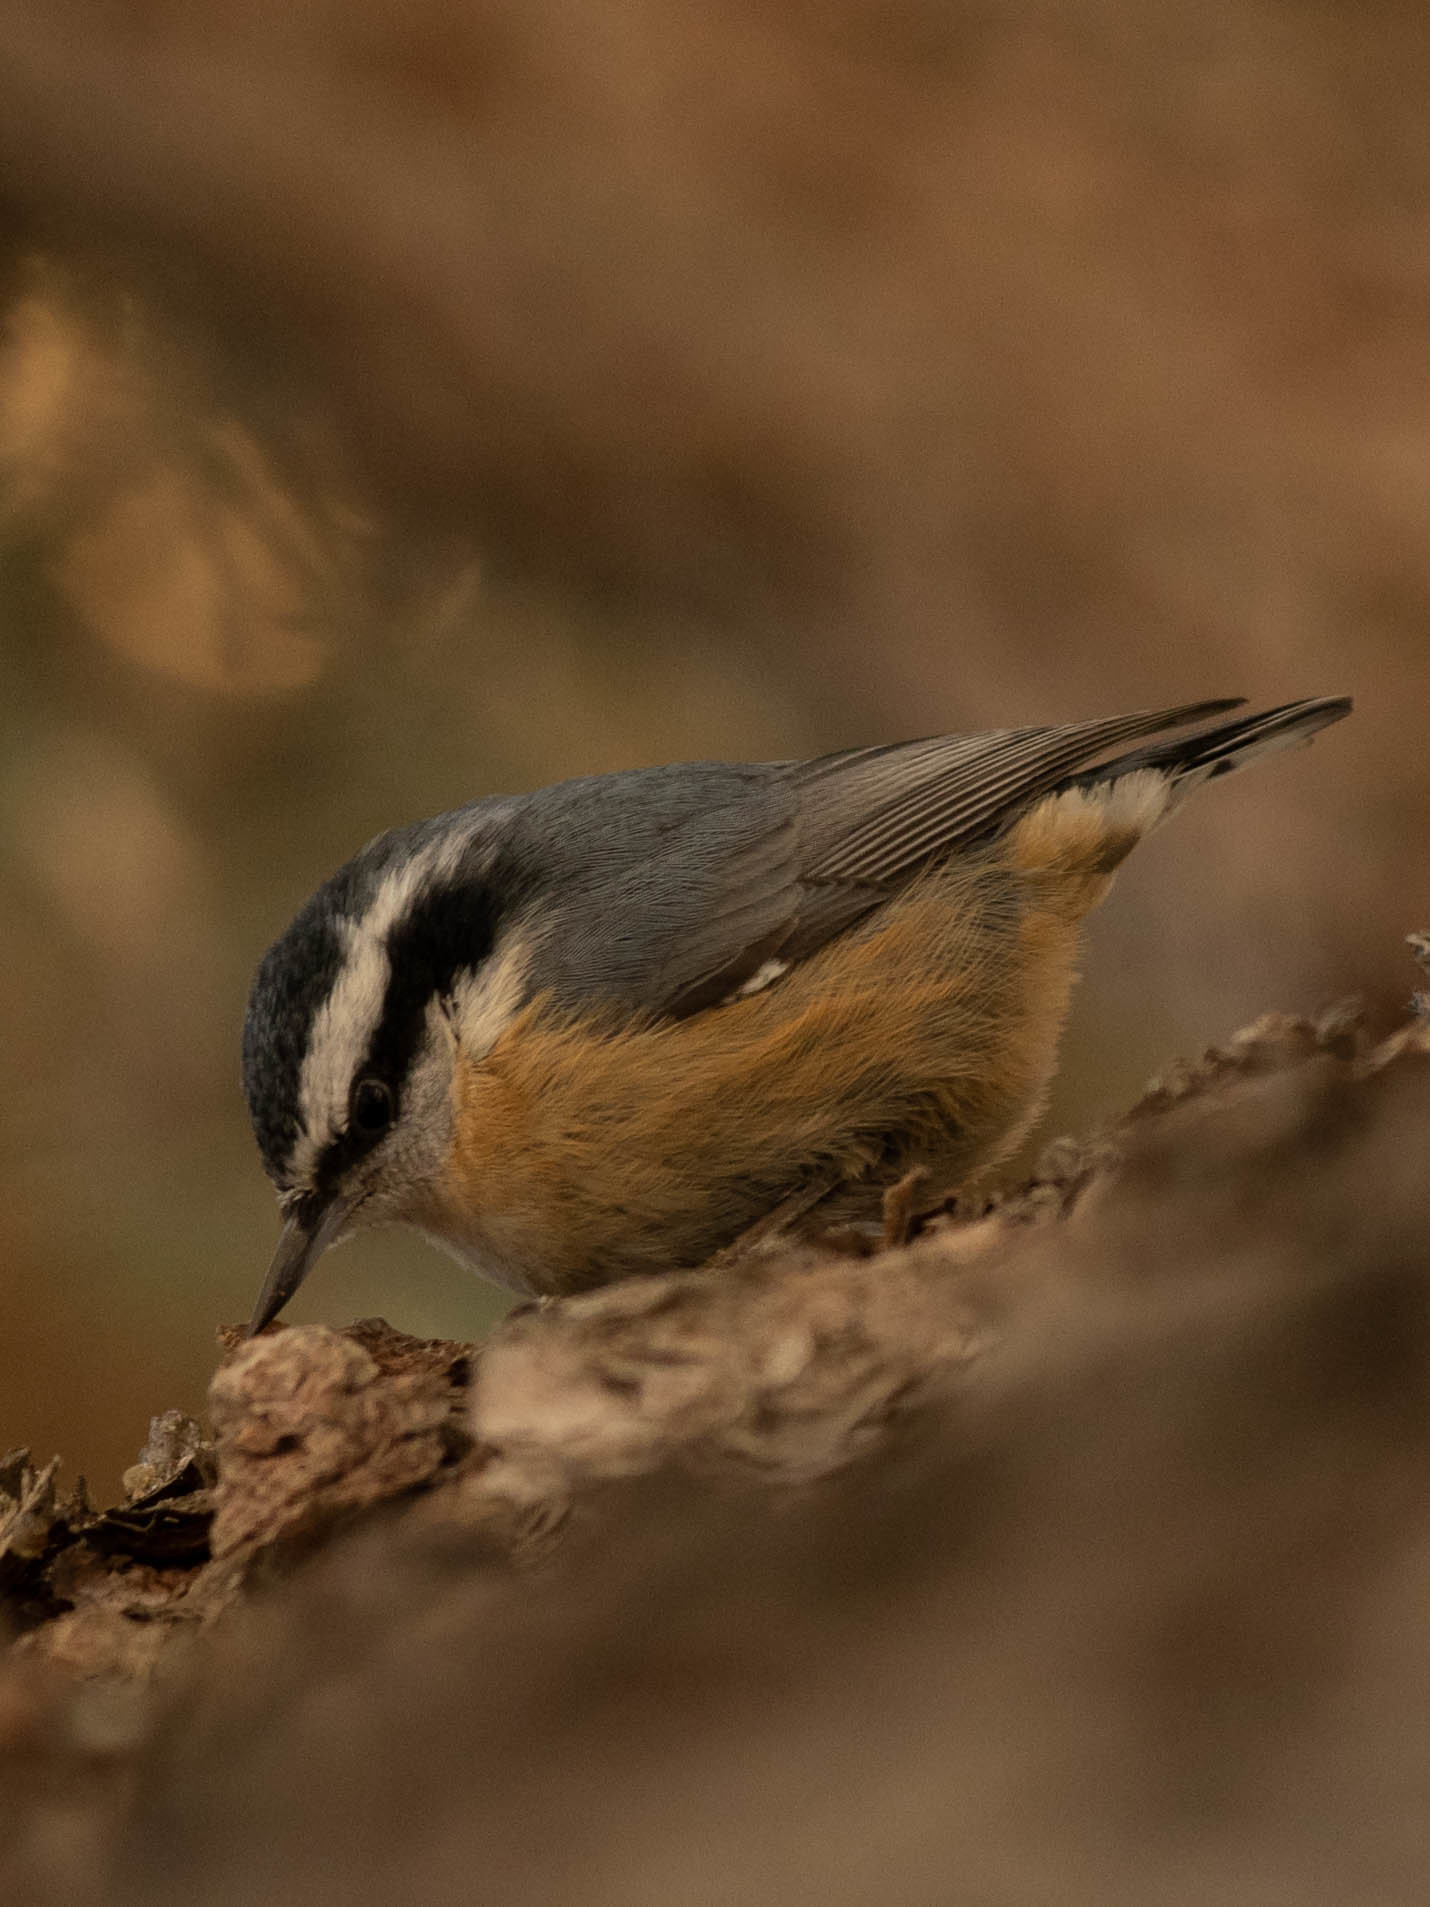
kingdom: Animalia
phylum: Chordata
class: Aves
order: Passeriformes
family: Sittidae
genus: Sitta
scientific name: Sitta canadensis
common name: Red-breasted nuthatch
